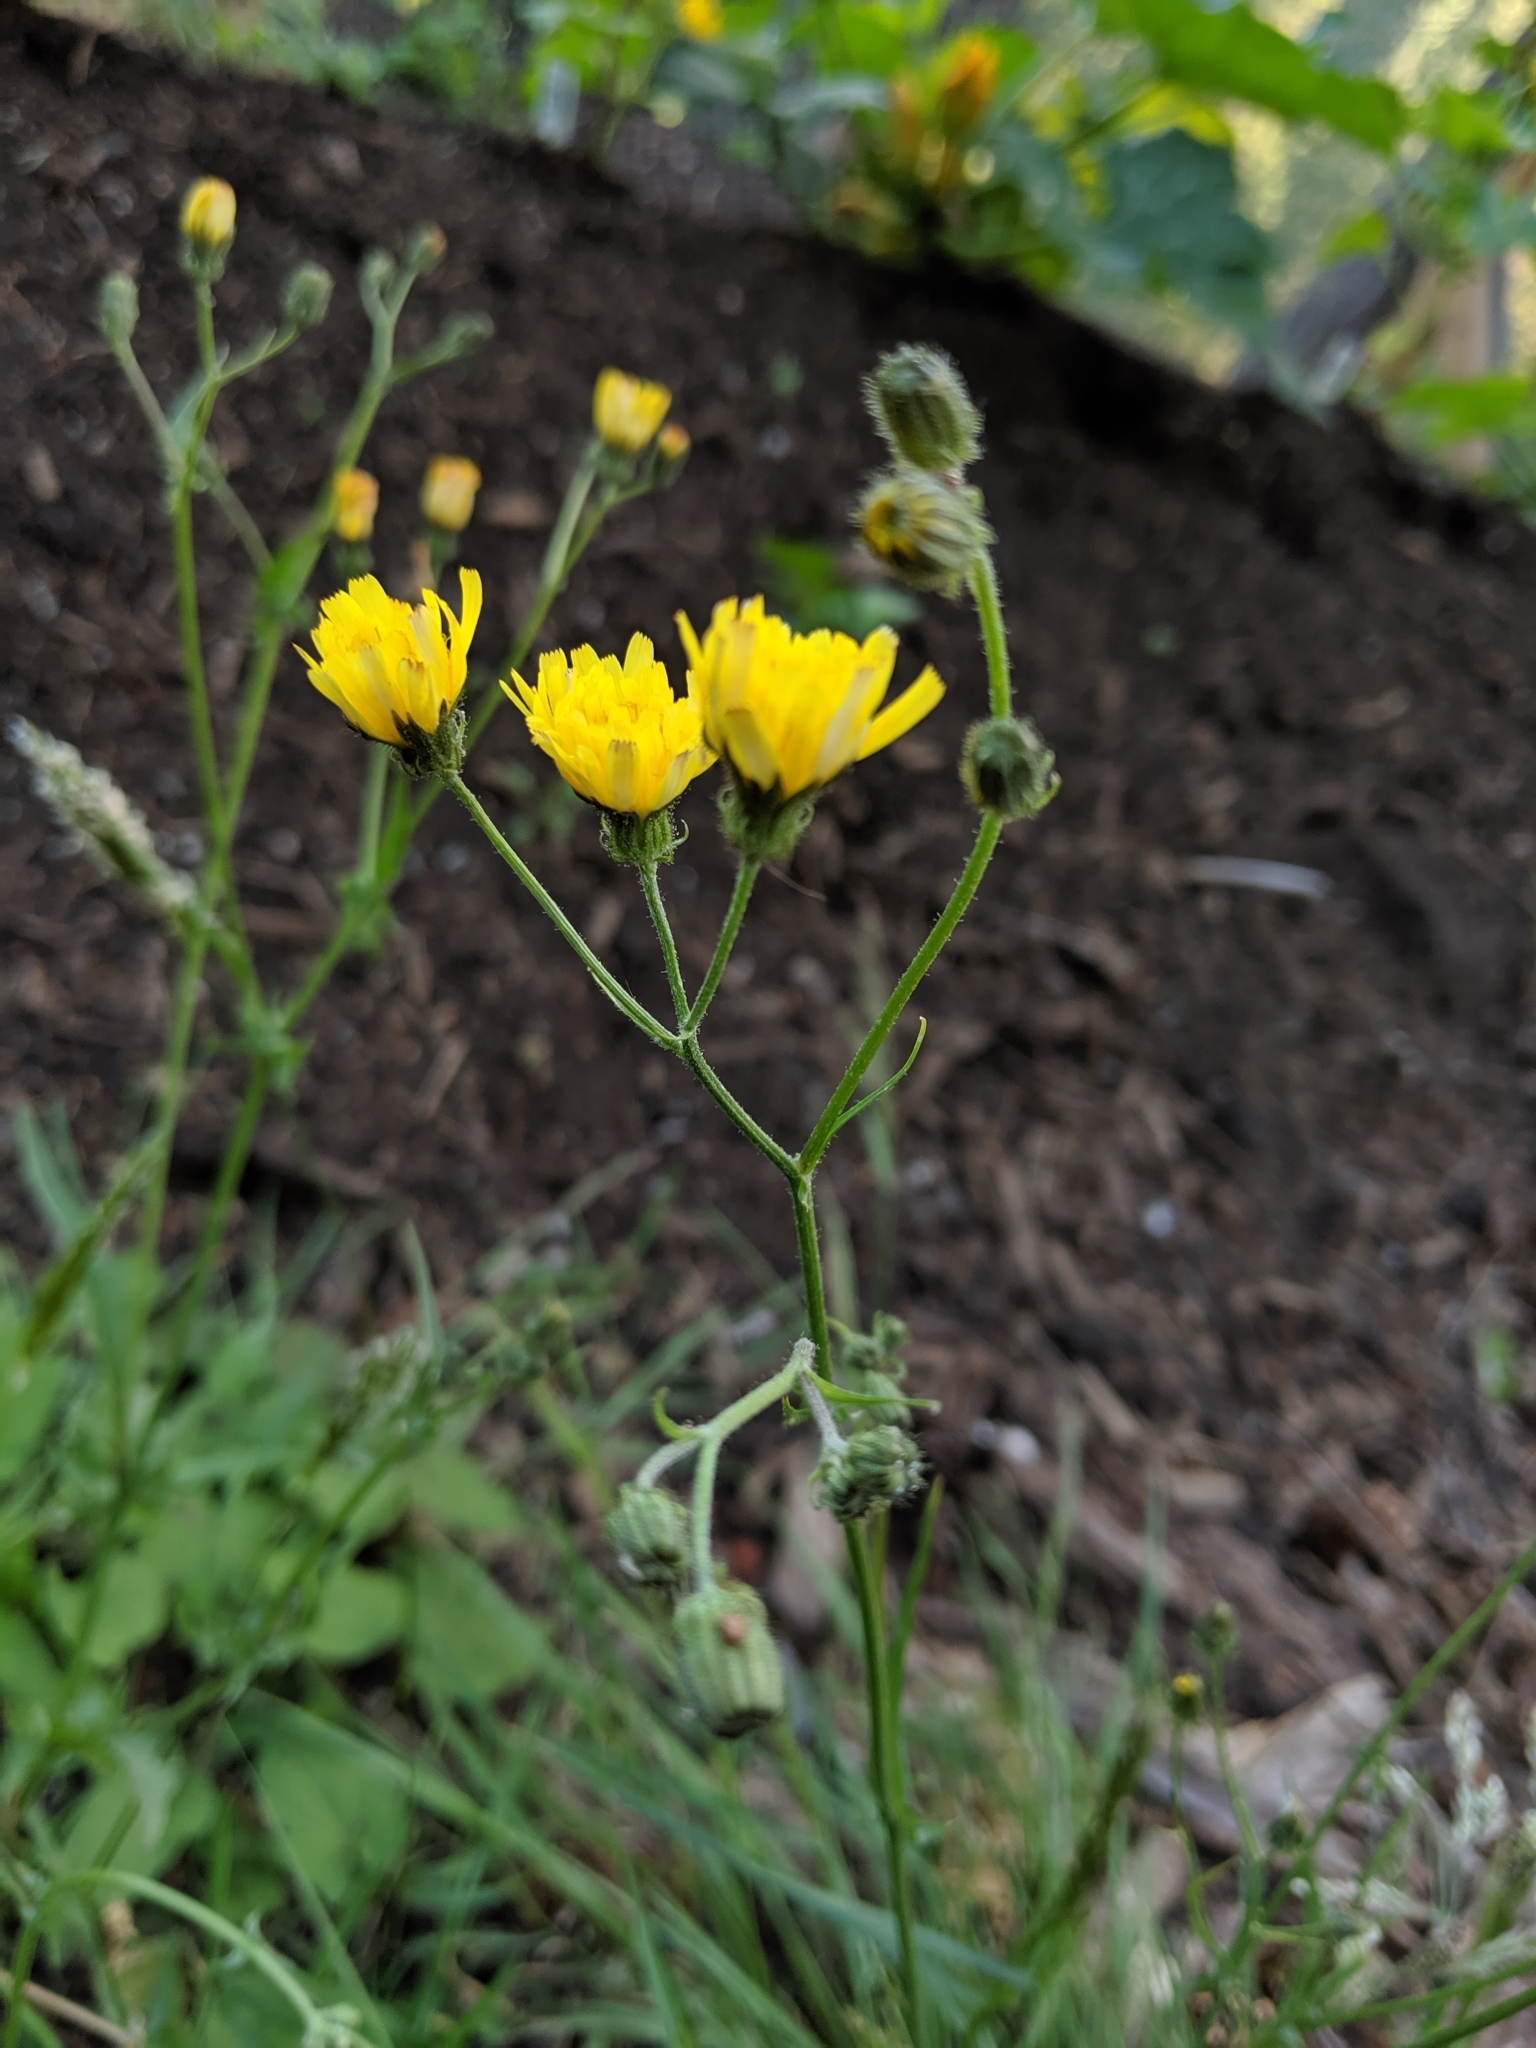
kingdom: Plantae
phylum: Tracheophyta
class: Magnoliopsida
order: Asterales
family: Asteraceae
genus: Crepis
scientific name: Crepis capillaris
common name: Smooth hawksbeard
